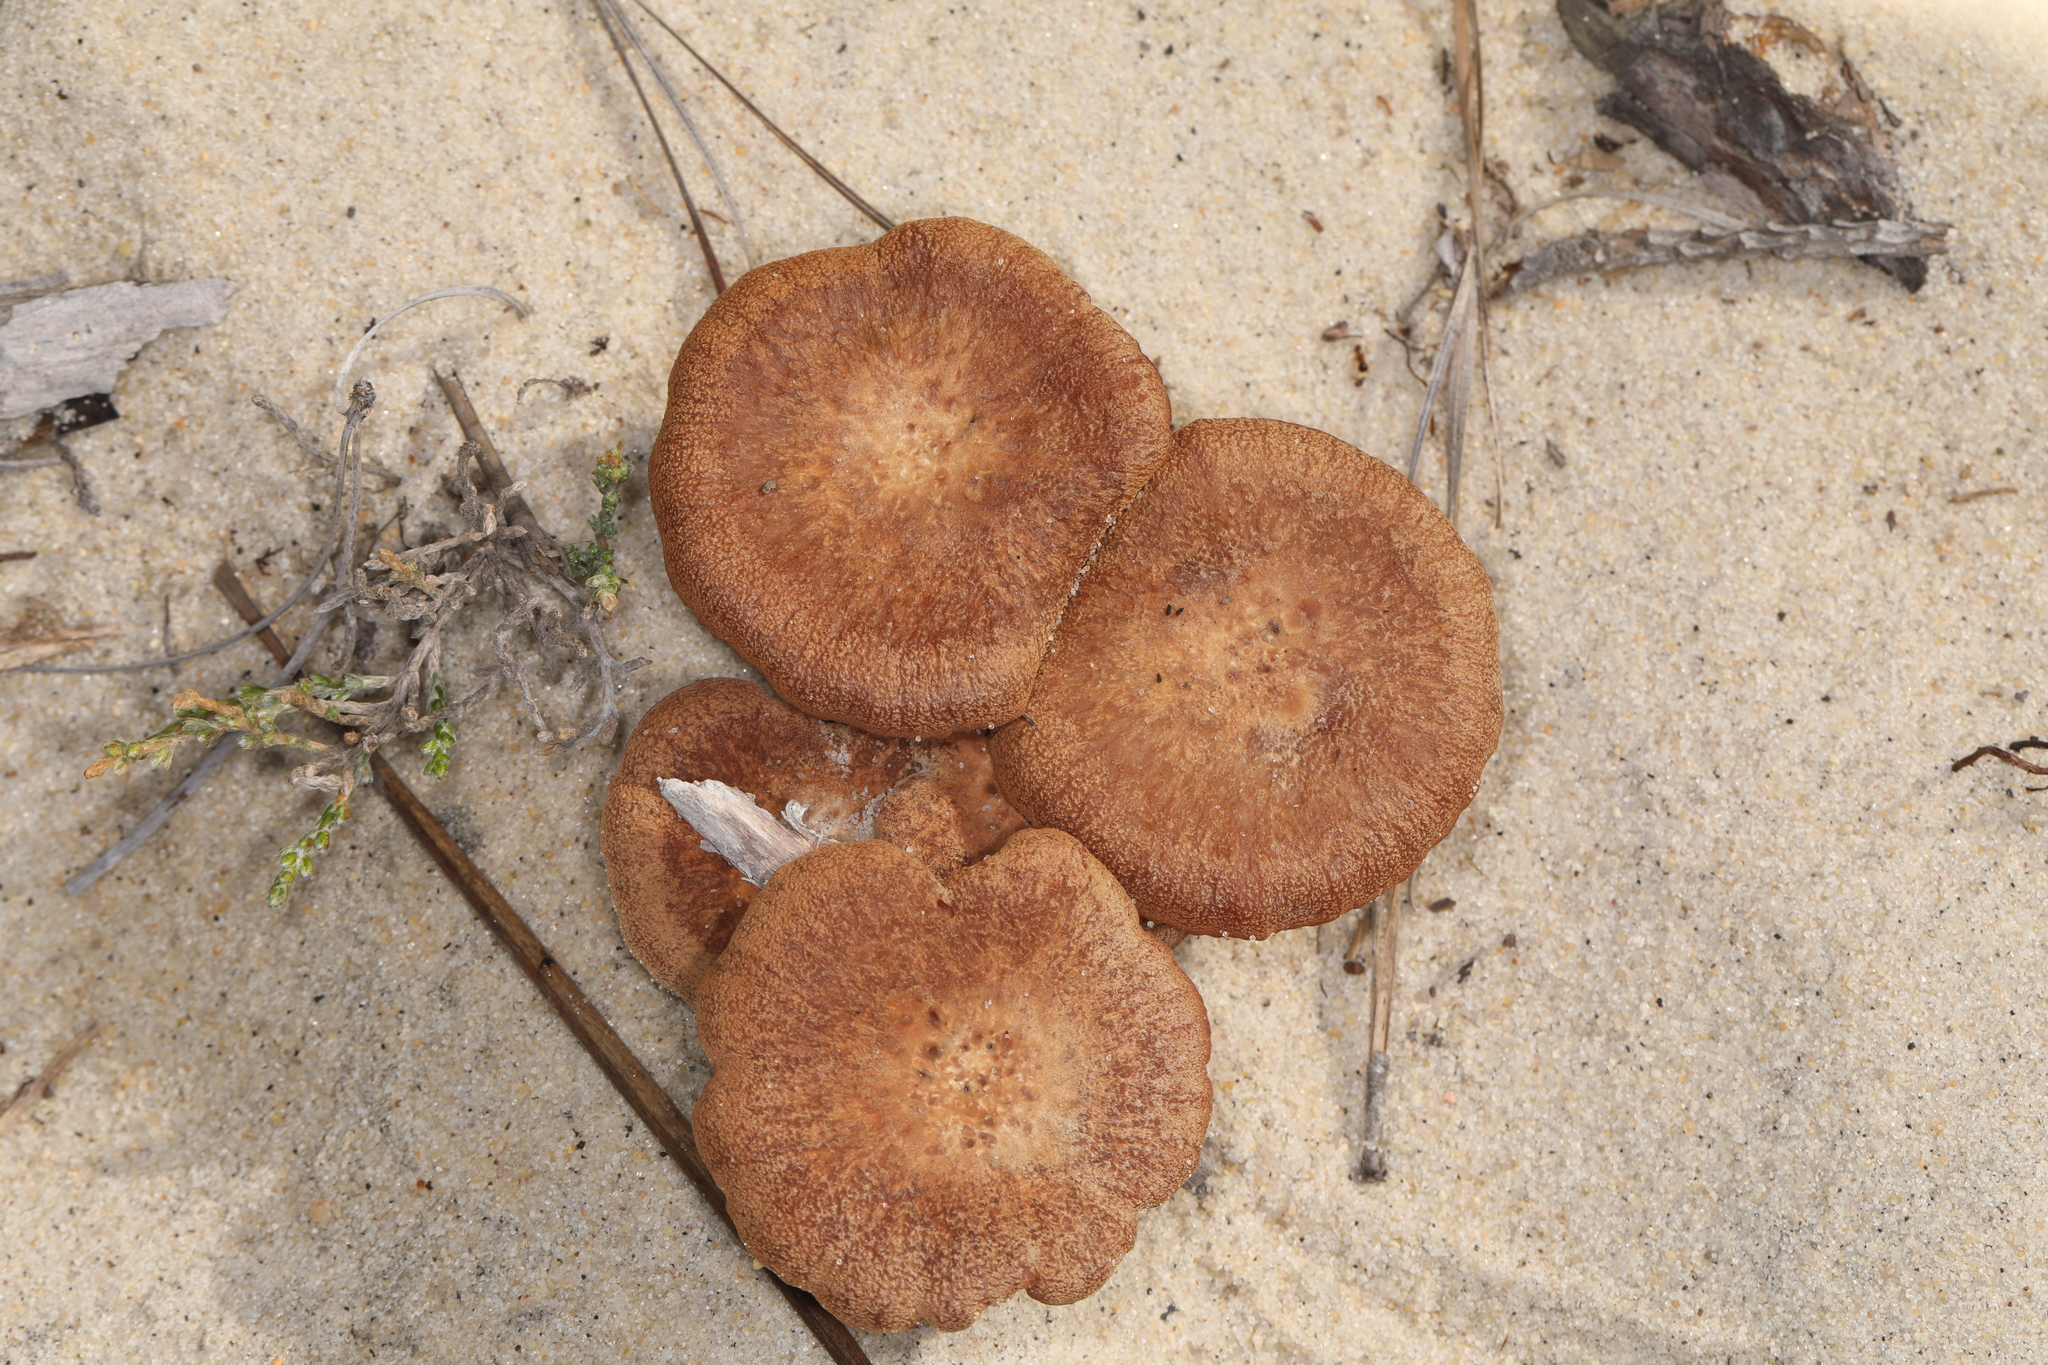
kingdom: Fungi
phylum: Basidiomycota
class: Agaricomycetes
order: Agaricales
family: Physalacriaceae
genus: Desarmillaria
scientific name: Desarmillaria caespitosa
